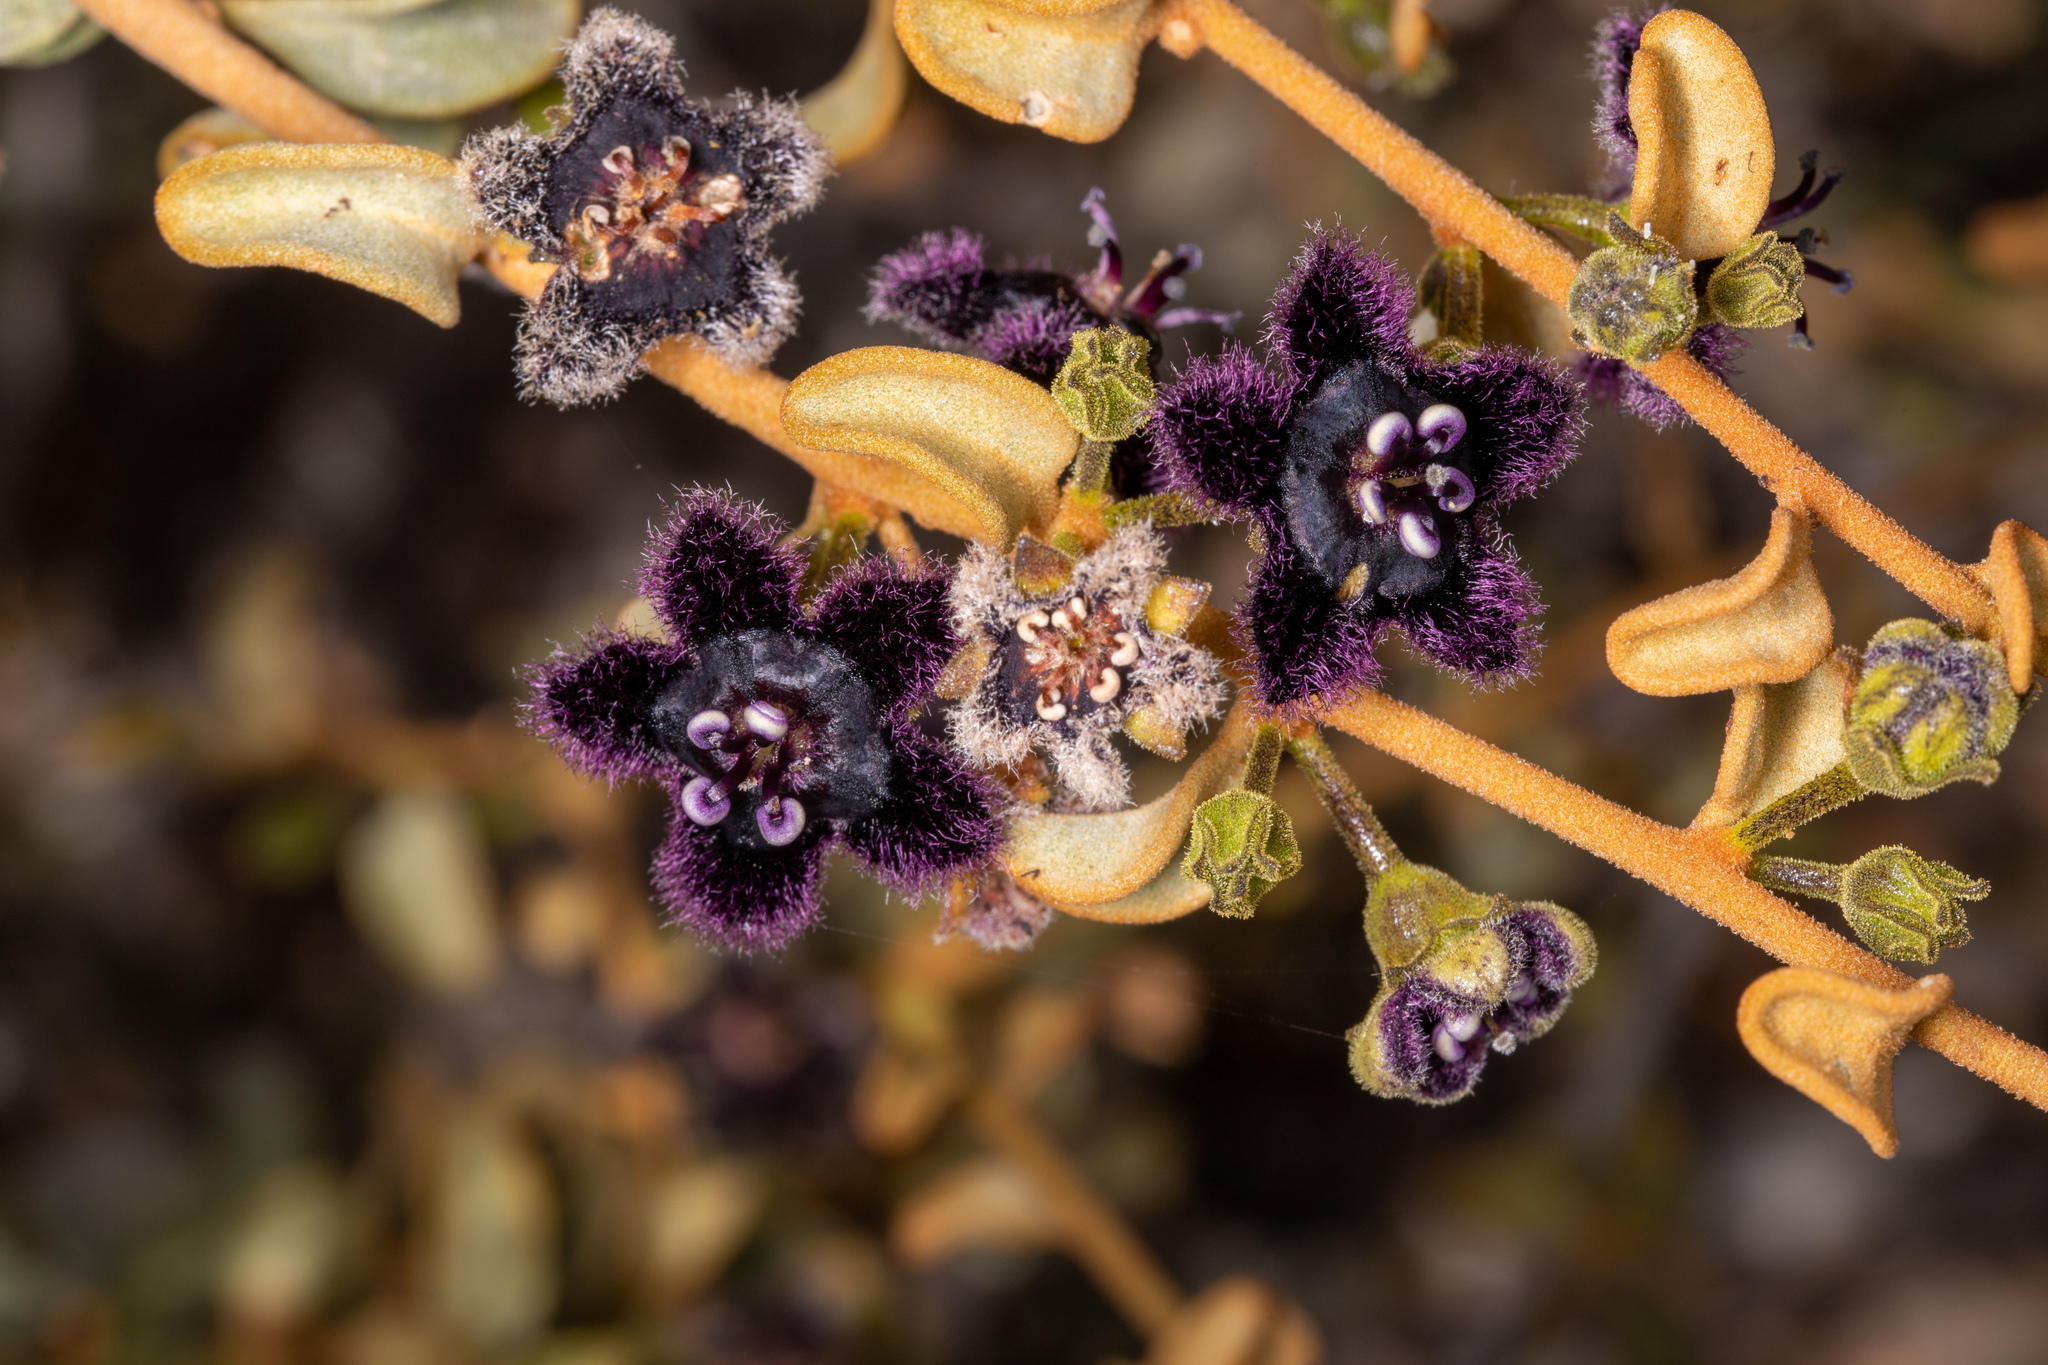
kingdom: Plantae
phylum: Tracheophyta
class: Magnoliopsida
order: Solanales
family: Solanaceae
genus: Anthotroche
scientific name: Anthotroche walcottii
